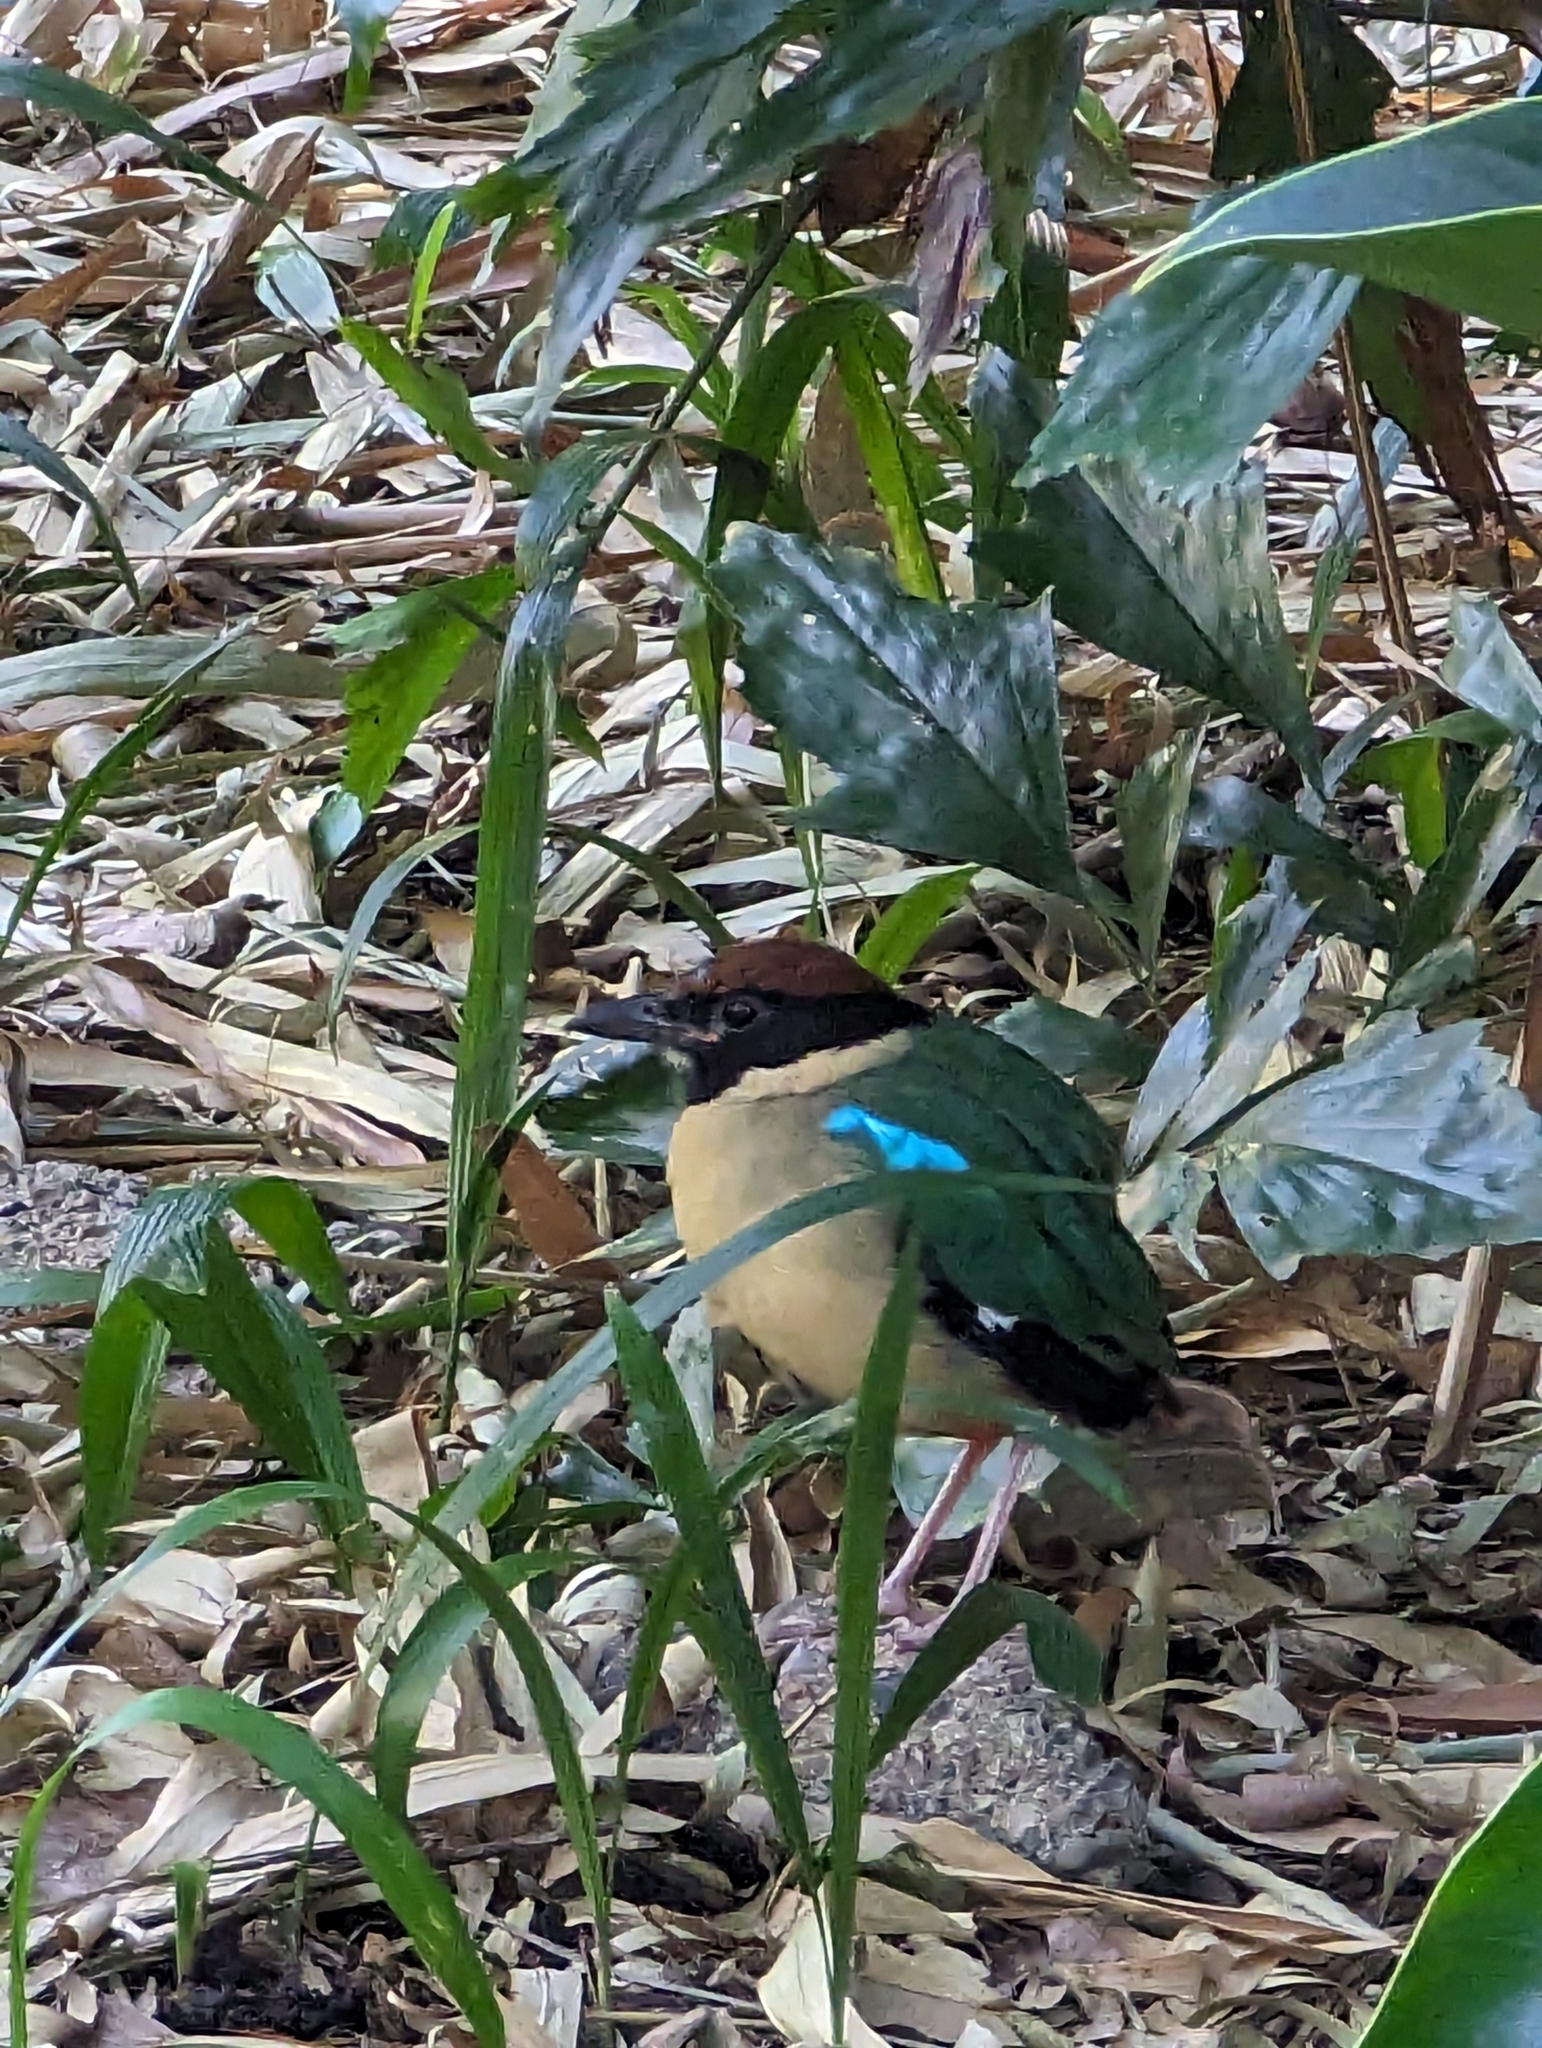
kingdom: Animalia
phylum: Chordata
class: Aves
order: Passeriformes
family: Pittidae
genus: Pitta
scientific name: Pitta versicolor
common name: Noisy pitta
